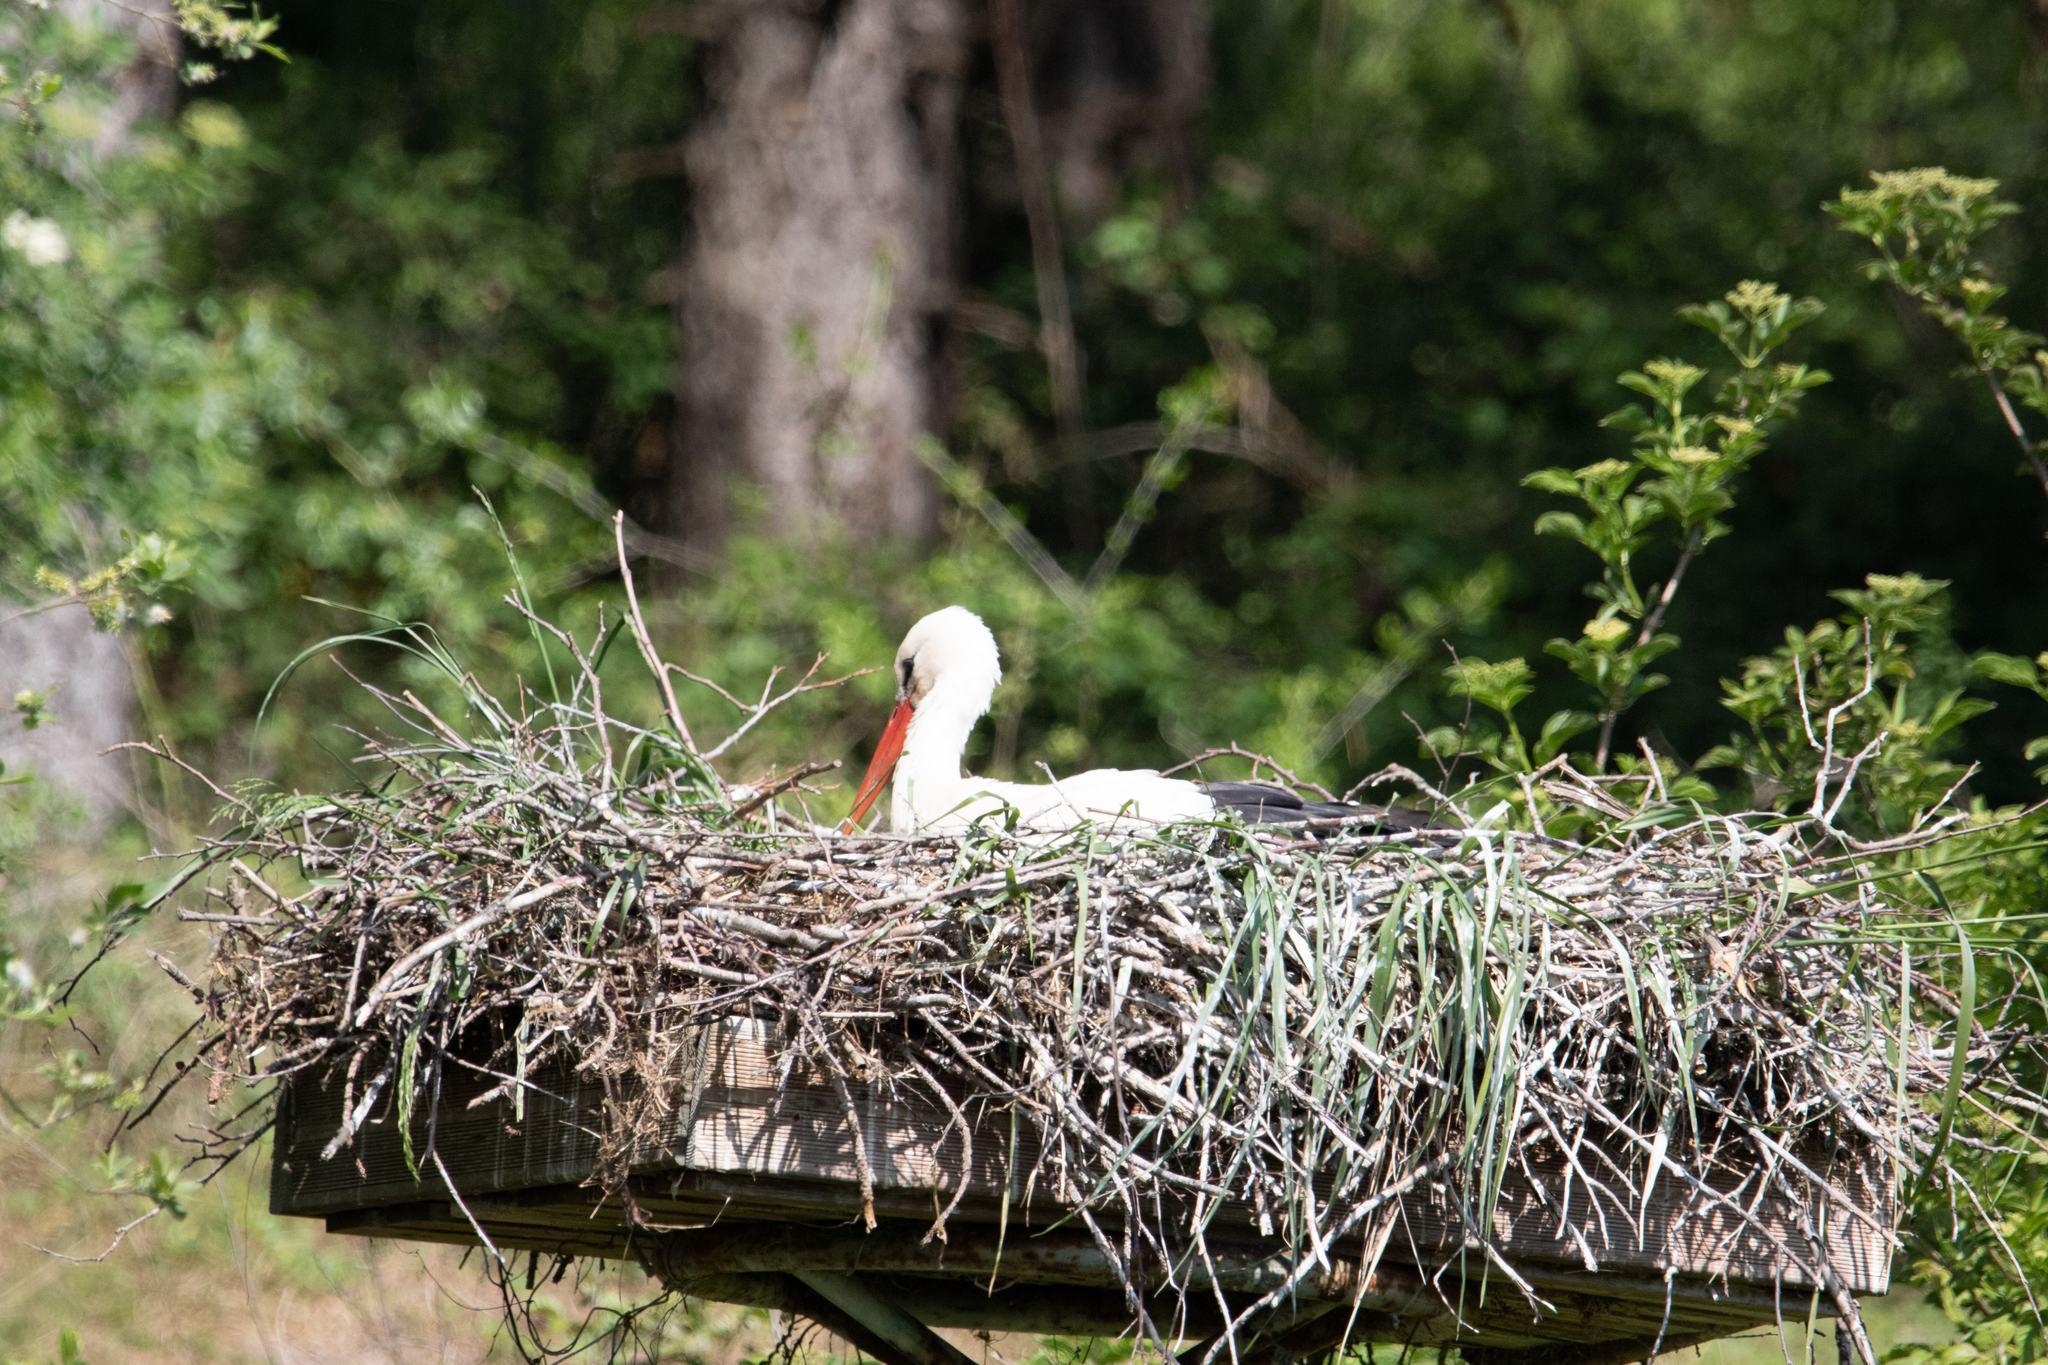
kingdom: Animalia
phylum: Chordata
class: Aves
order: Ciconiiformes
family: Ciconiidae
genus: Ciconia
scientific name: Ciconia ciconia
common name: White stork
